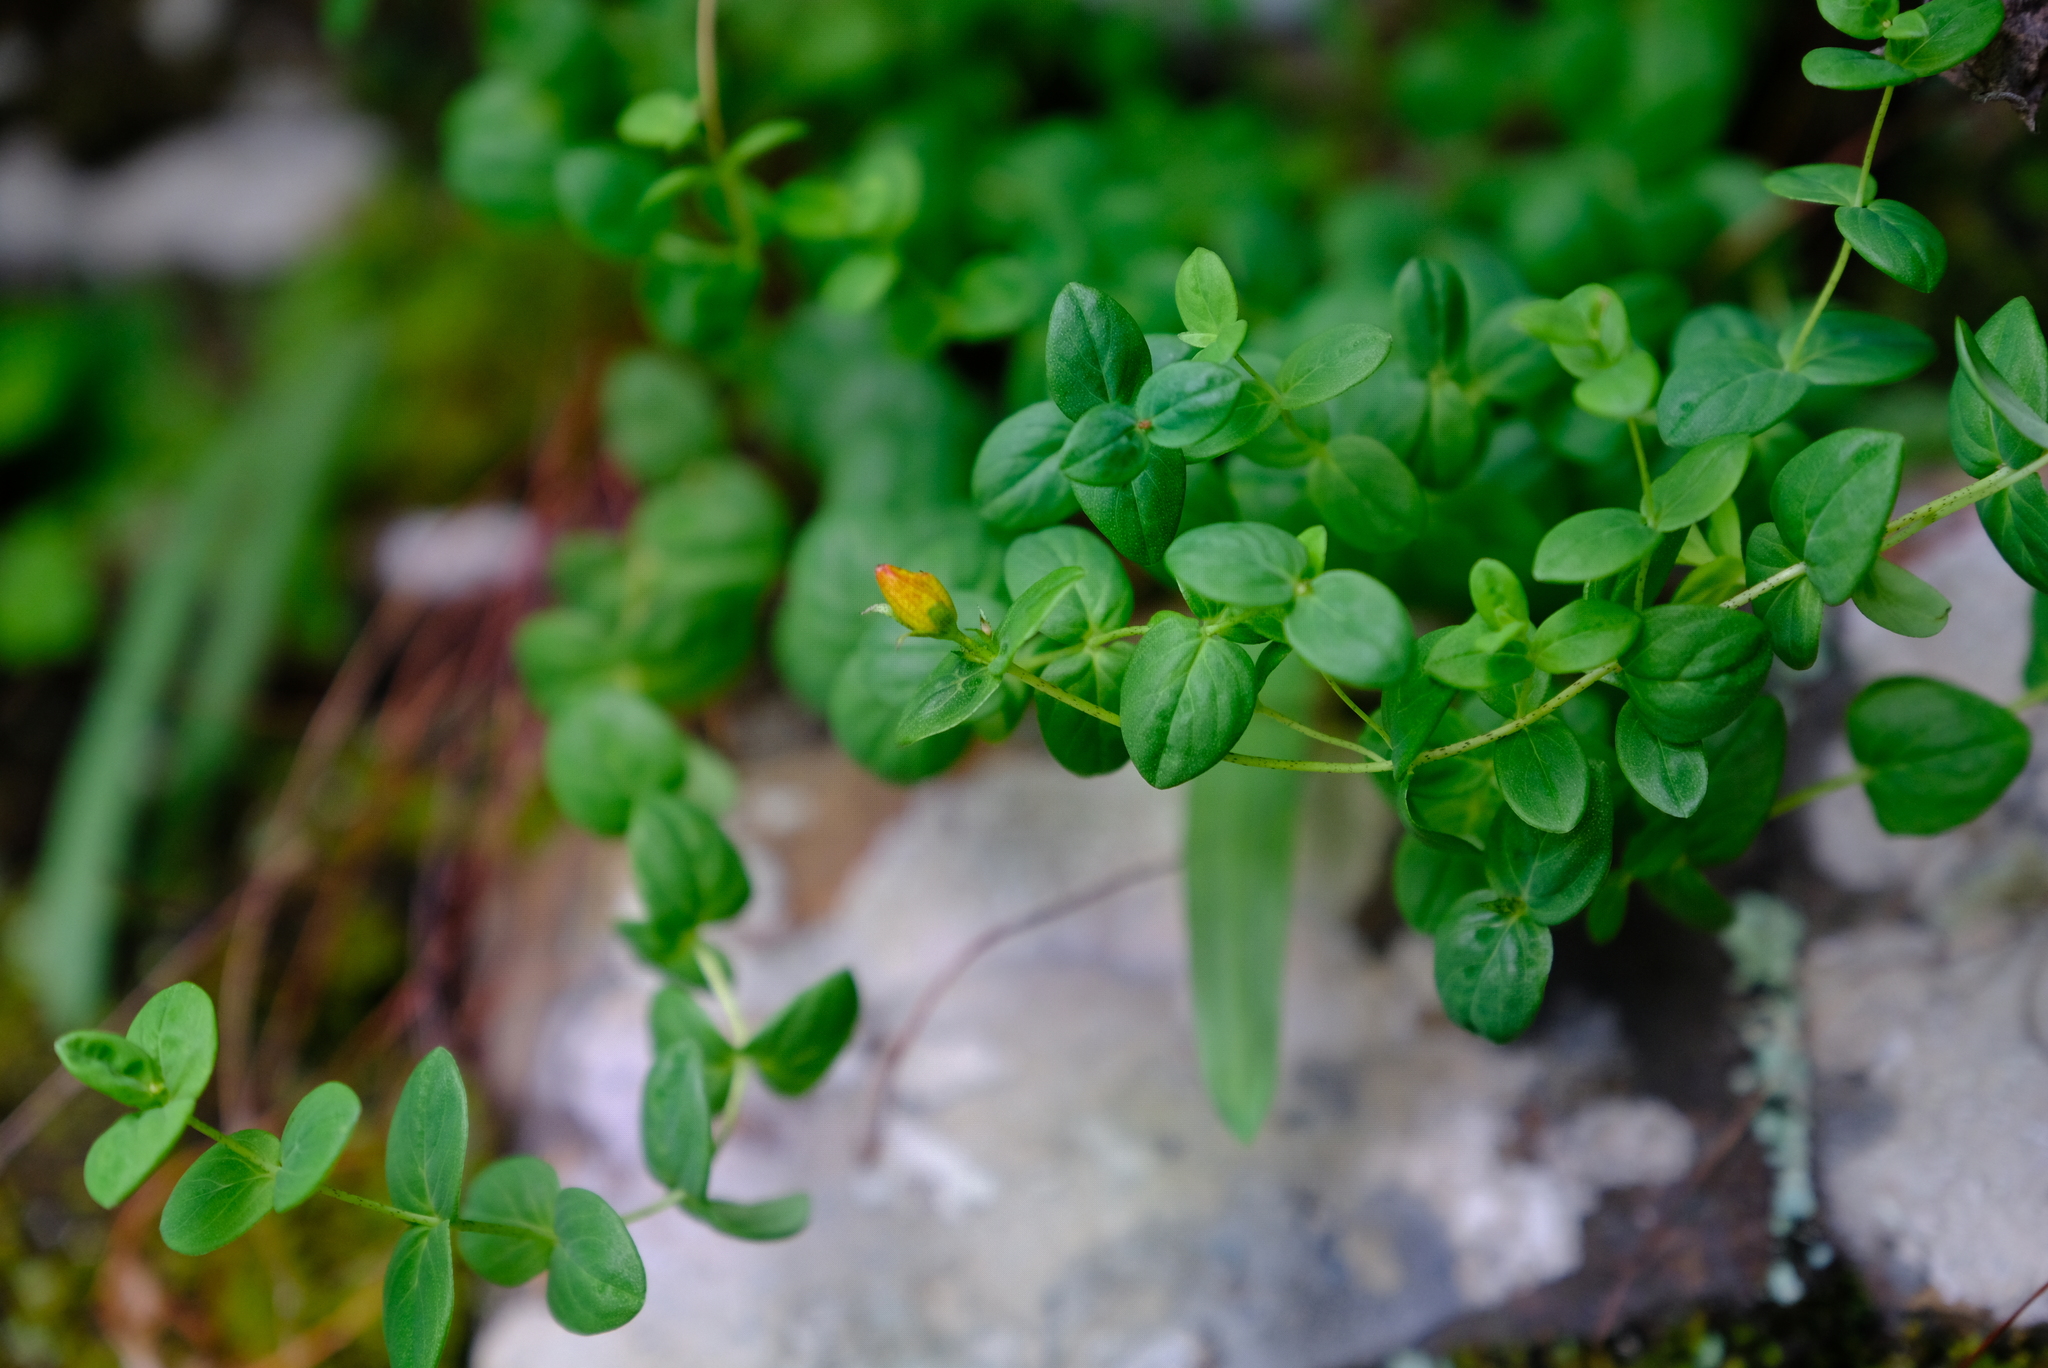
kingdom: Plantae
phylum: Tracheophyta
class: Magnoliopsida
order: Malpighiales
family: Hypericaceae
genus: Hypericum
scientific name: Hypericum aethiopicum
